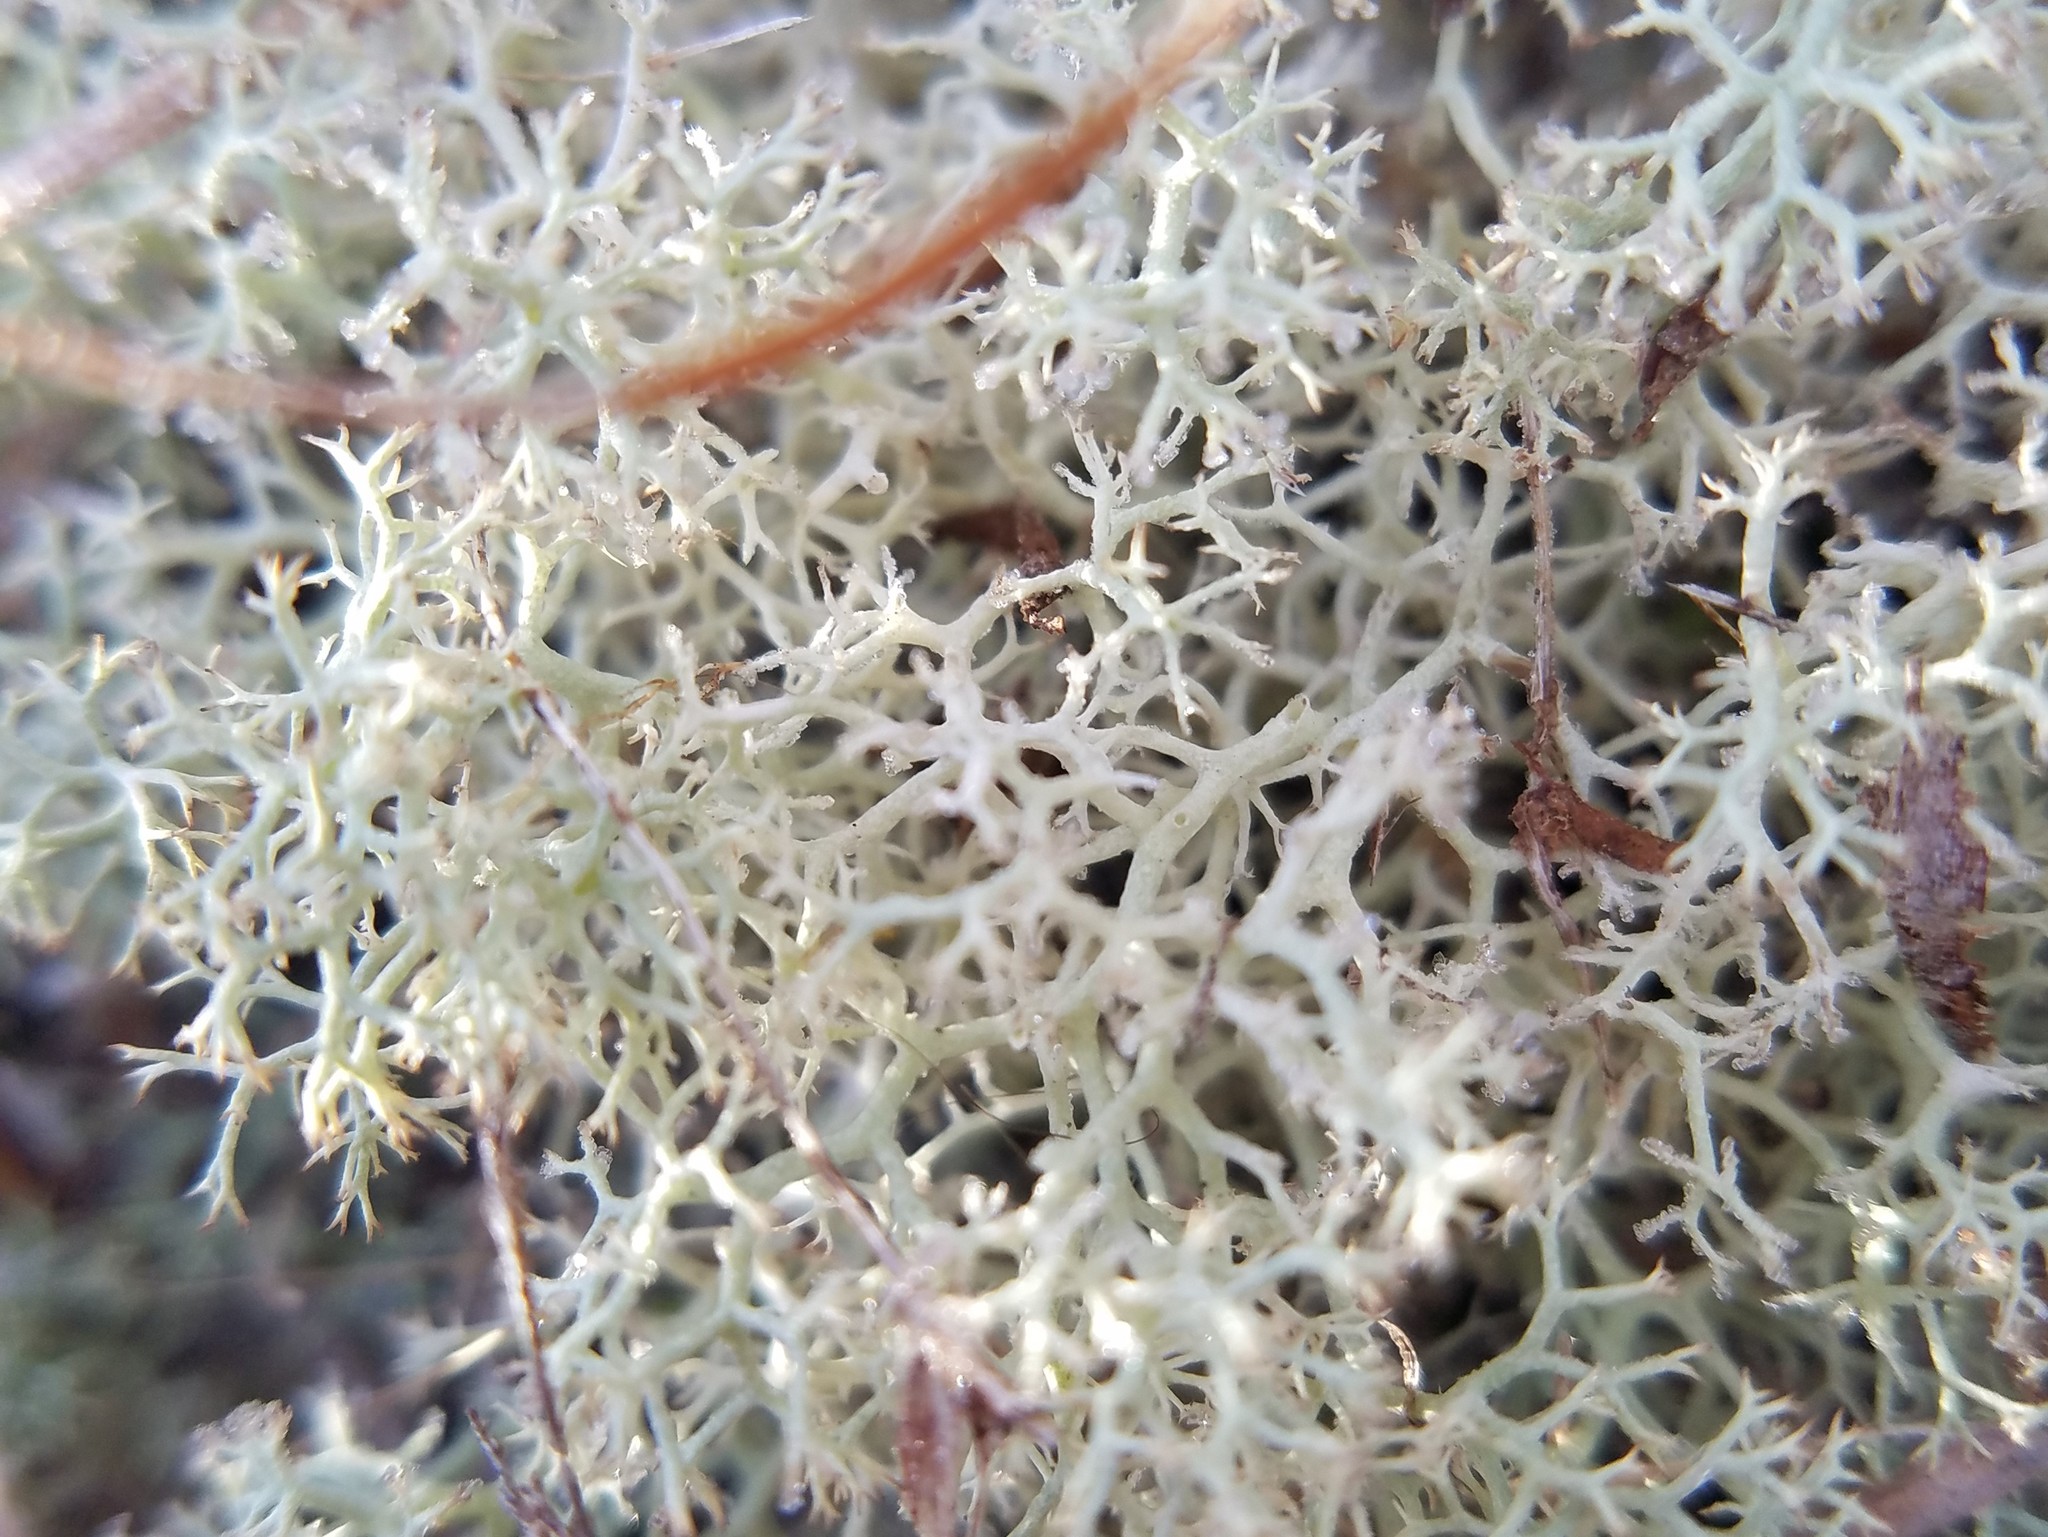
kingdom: Fungi
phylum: Ascomycota
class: Lecanoromycetes
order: Lecanorales
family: Cladoniaceae
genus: Cladonia
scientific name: Cladonia subtenuis
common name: Dixie reindeer lichen
